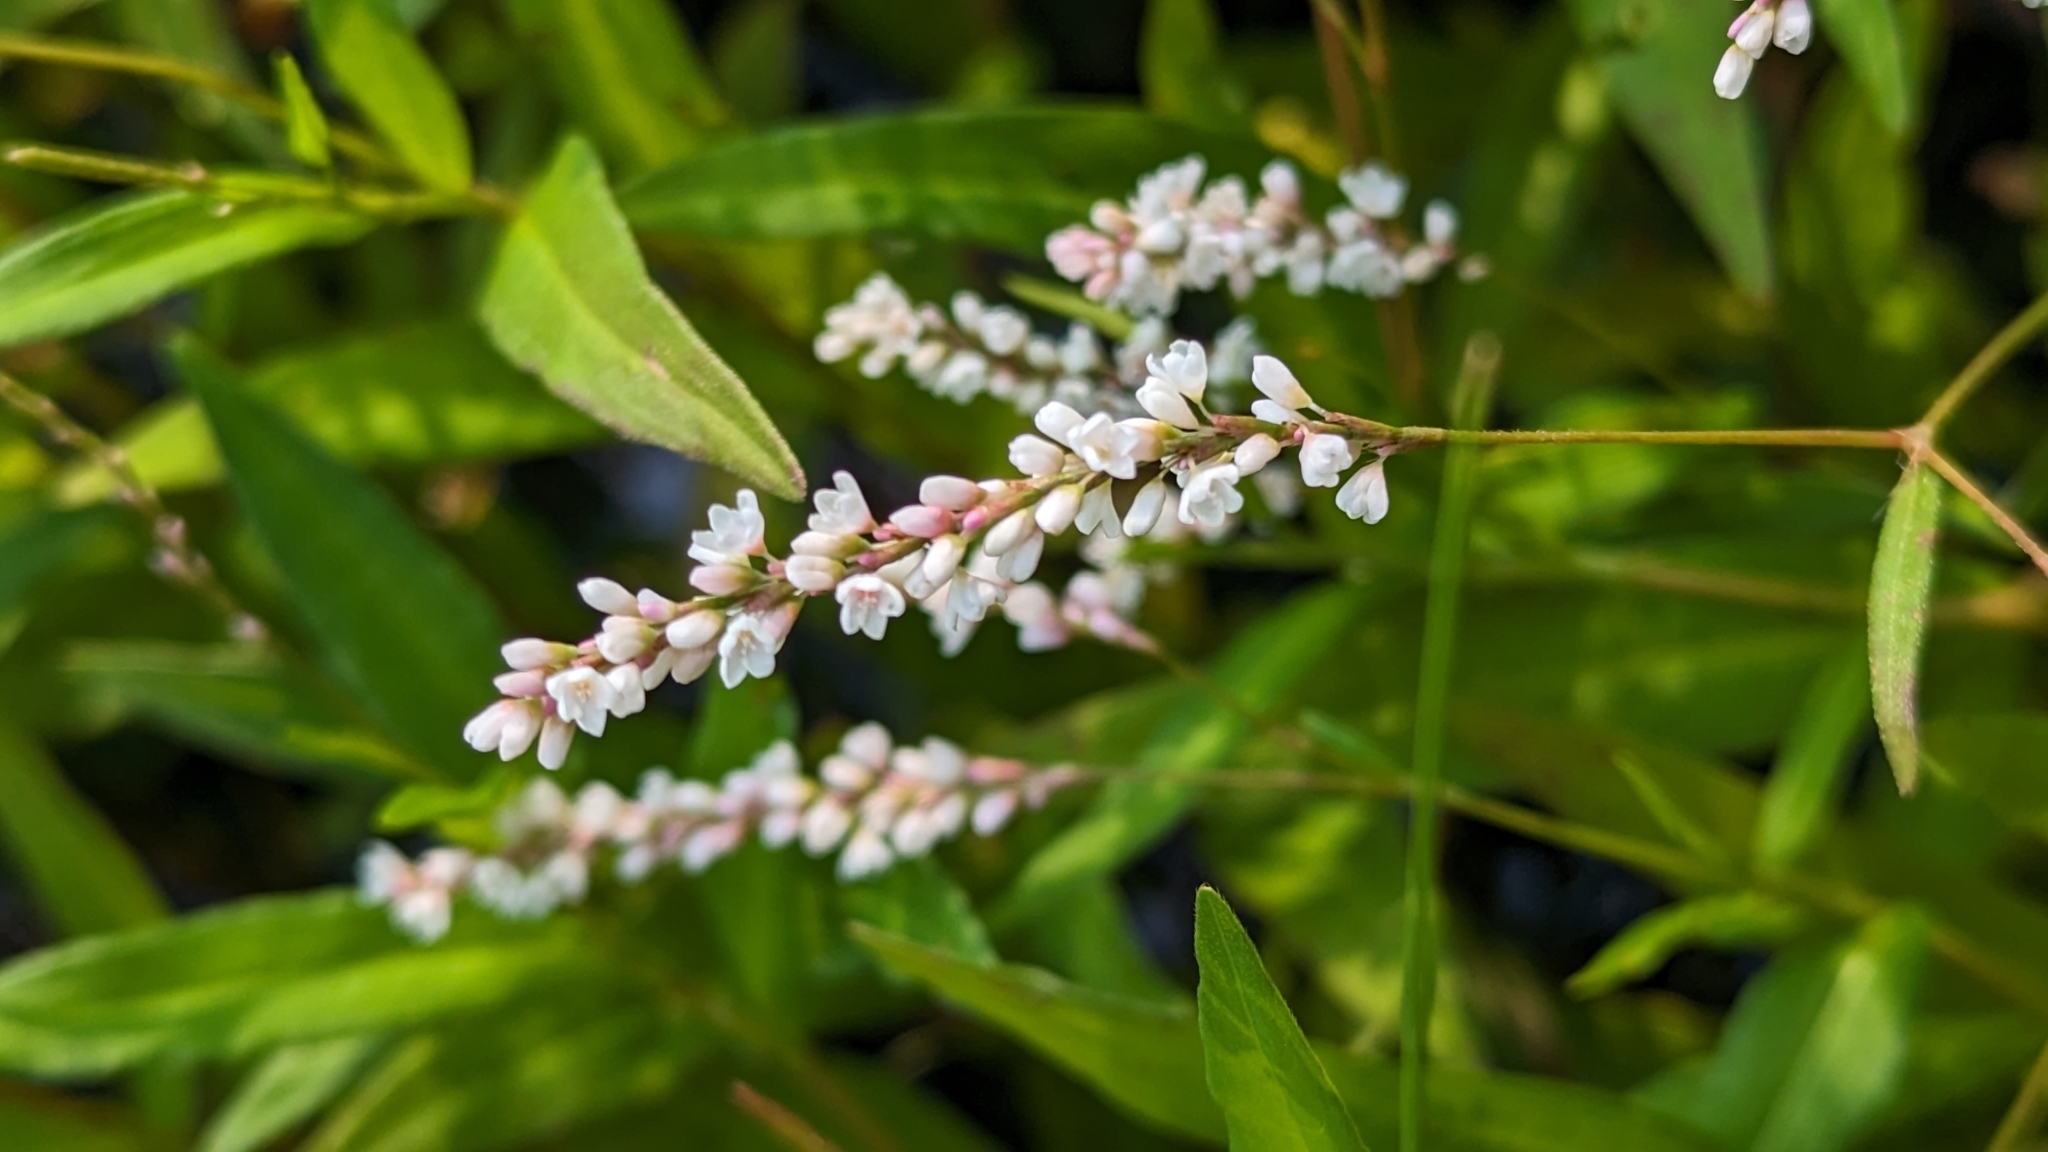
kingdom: Plantae
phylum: Tracheophyta
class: Magnoliopsida
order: Caryophyllales
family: Polygonaceae
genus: Persicaria
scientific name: Persicaria hydropiperoides
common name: Swamp smartweed
